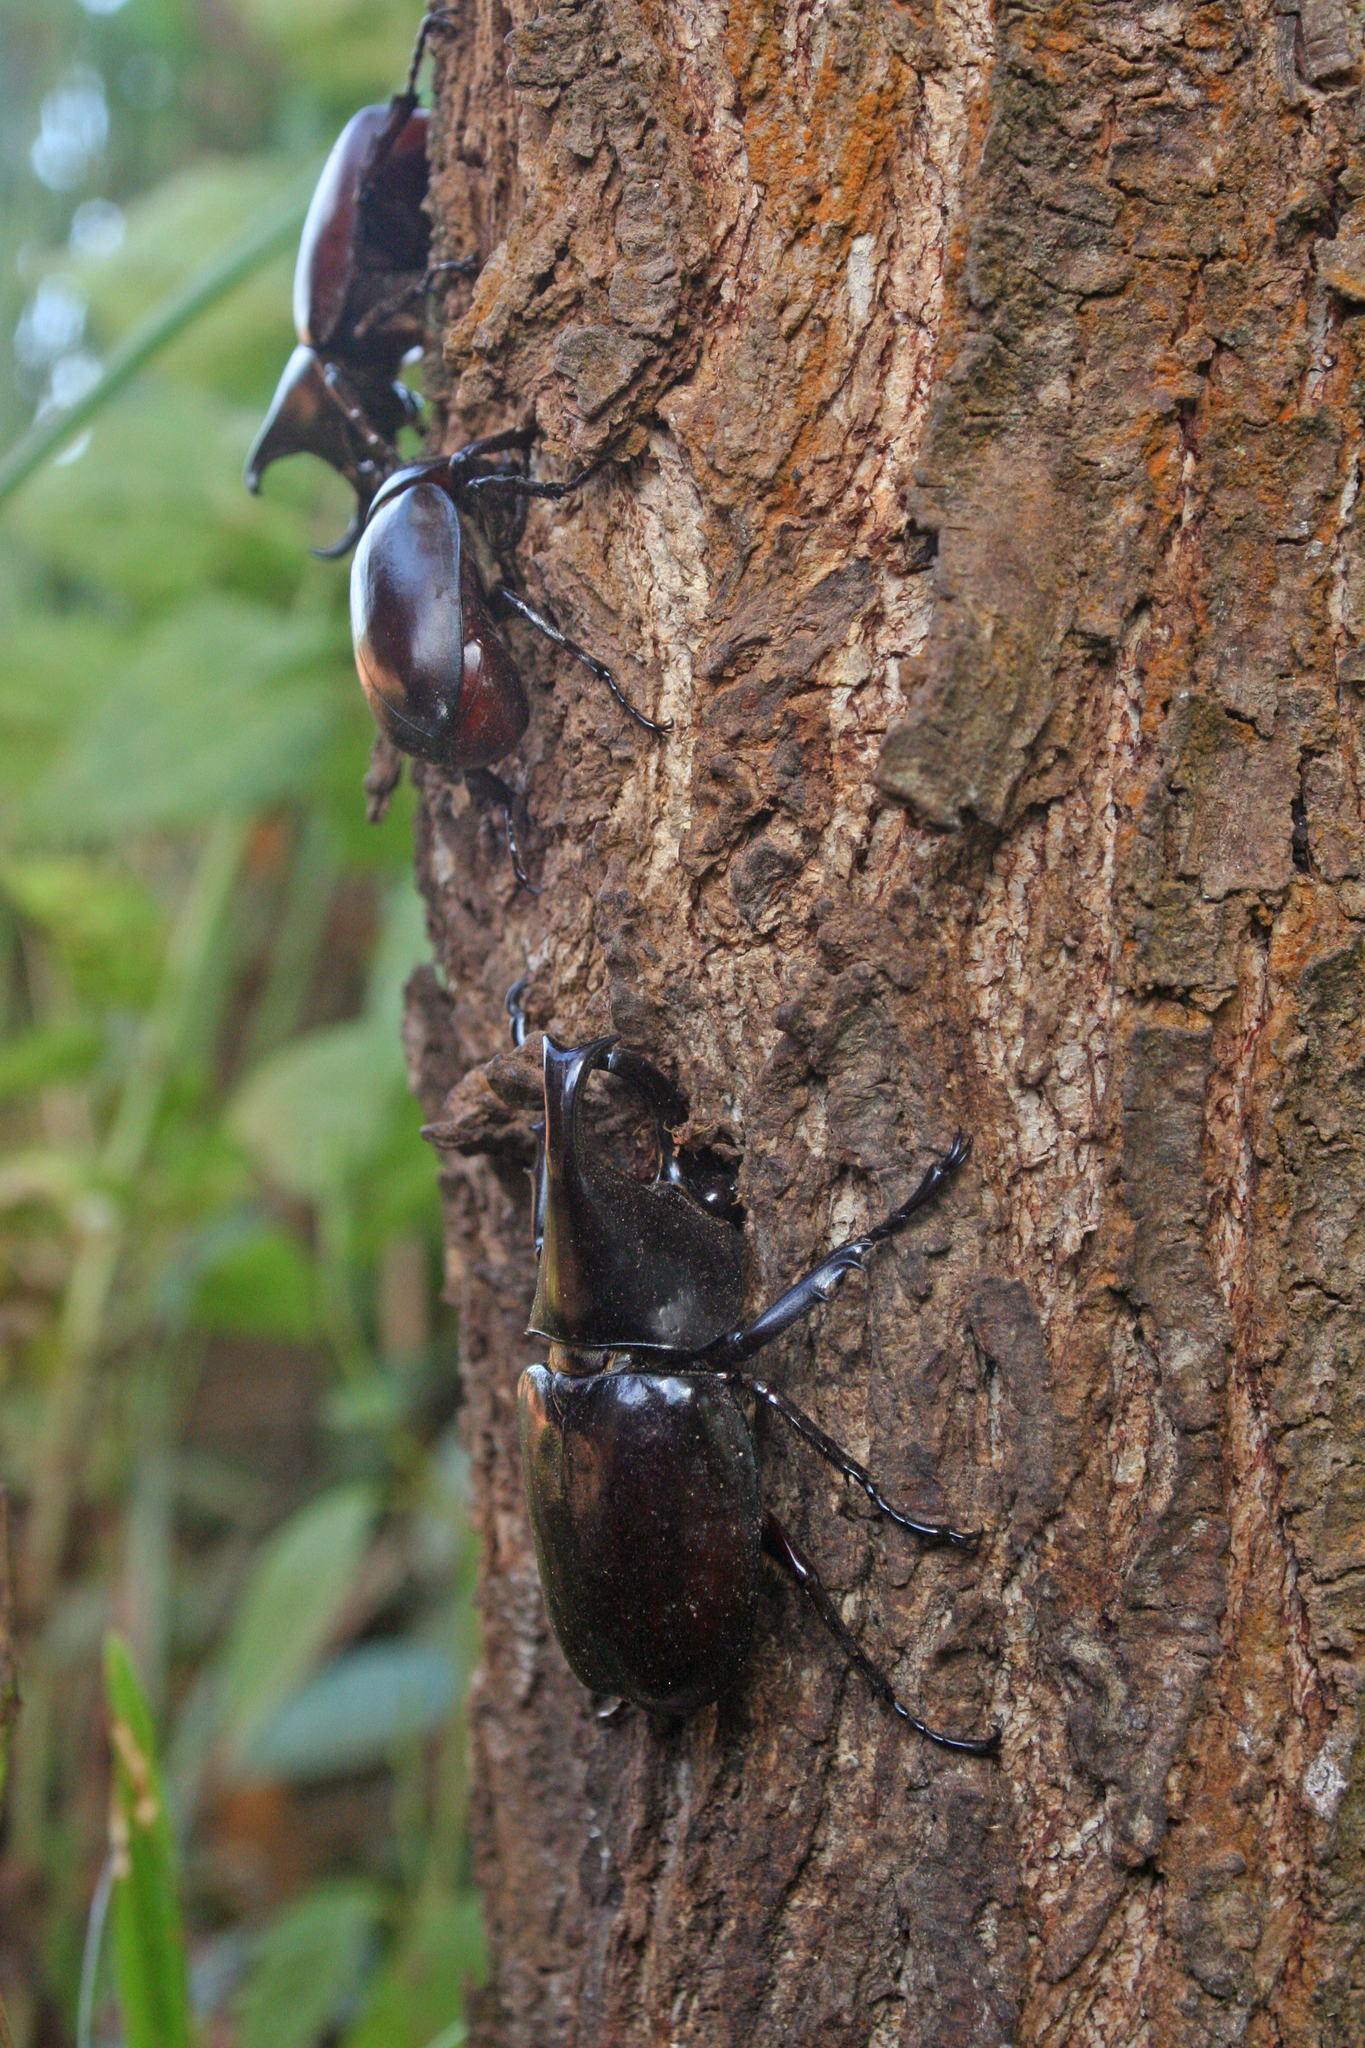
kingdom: Animalia
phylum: Arthropoda
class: Insecta
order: Coleoptera
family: Scarabaeidae
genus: Xylotrupes
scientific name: Xylotrupes socrates
